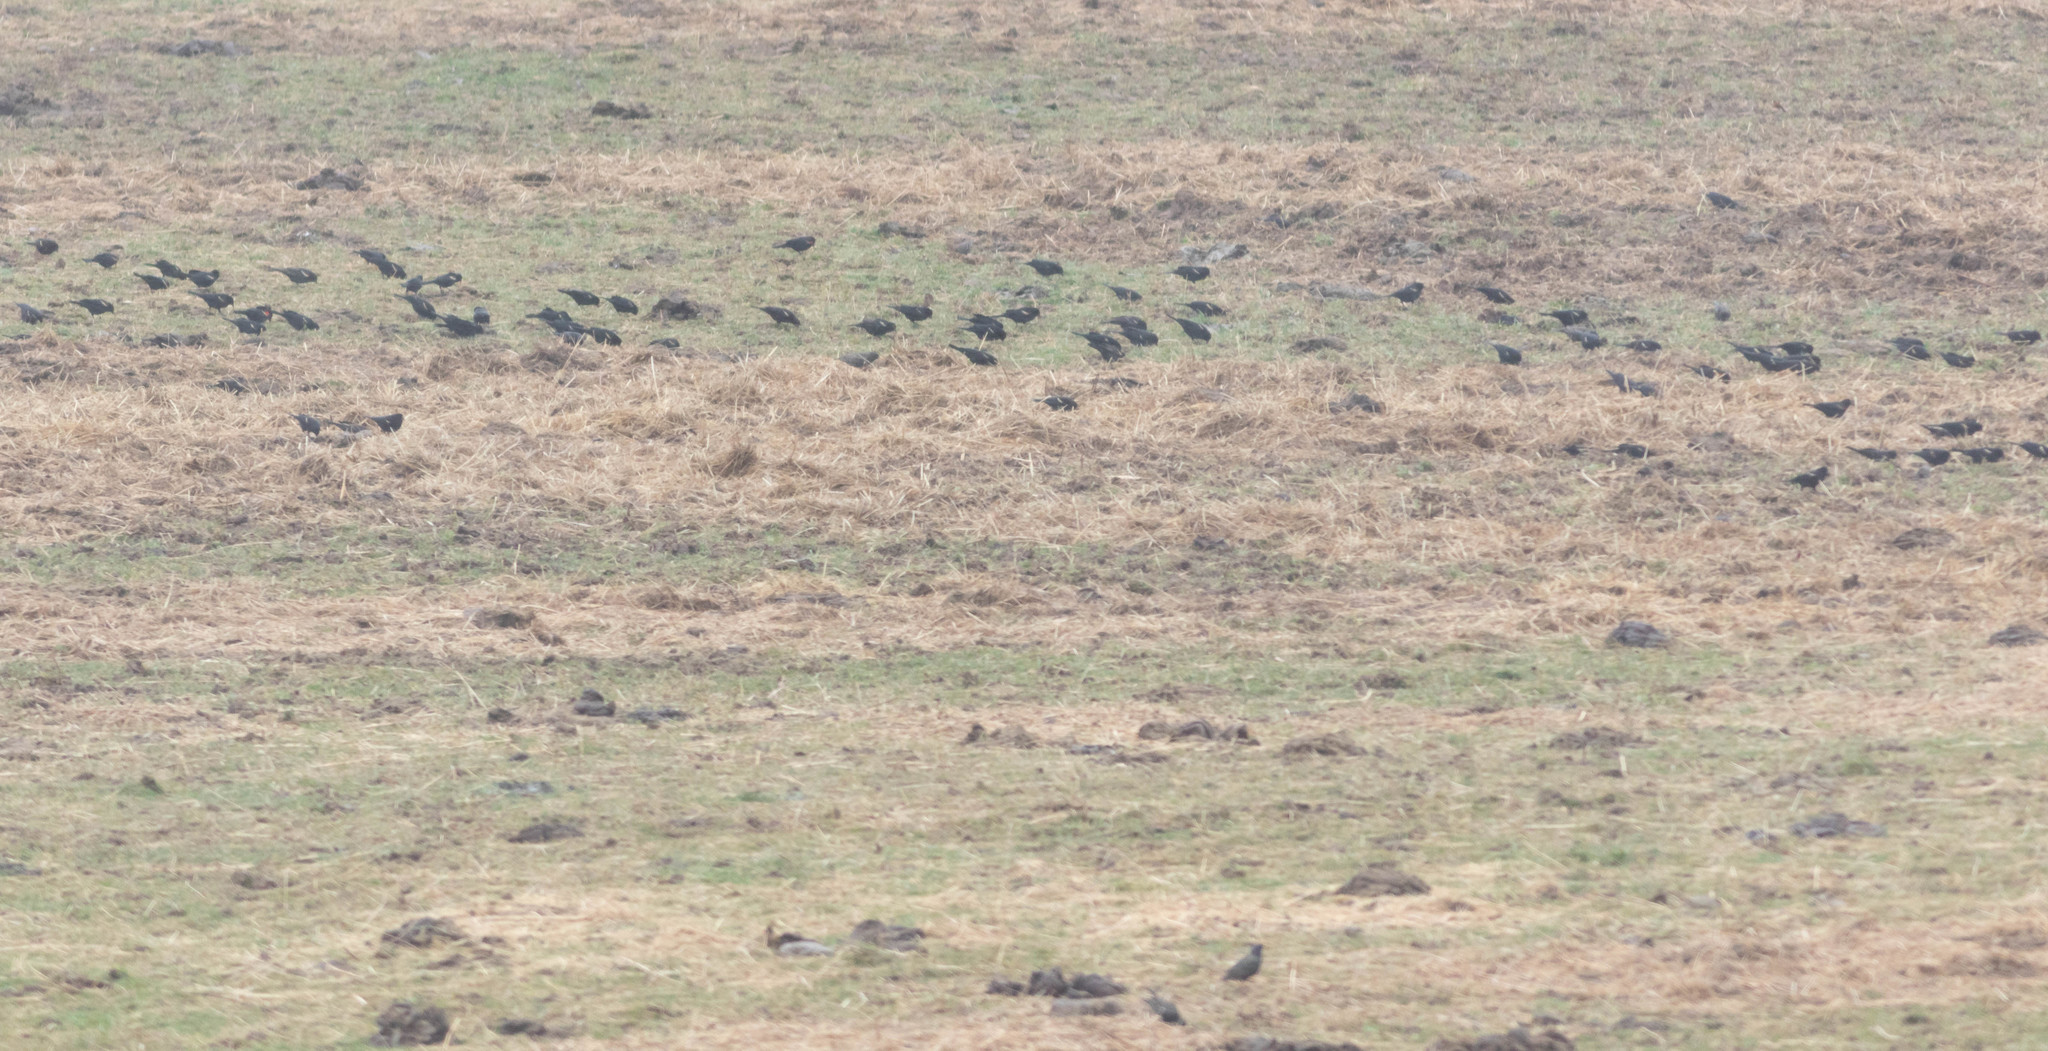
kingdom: Animalia
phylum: Chordata
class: Aves
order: Passeriformes
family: Icteridae
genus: Agelaius
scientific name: Agelaius phoeniceus
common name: Red-winged blackbird
